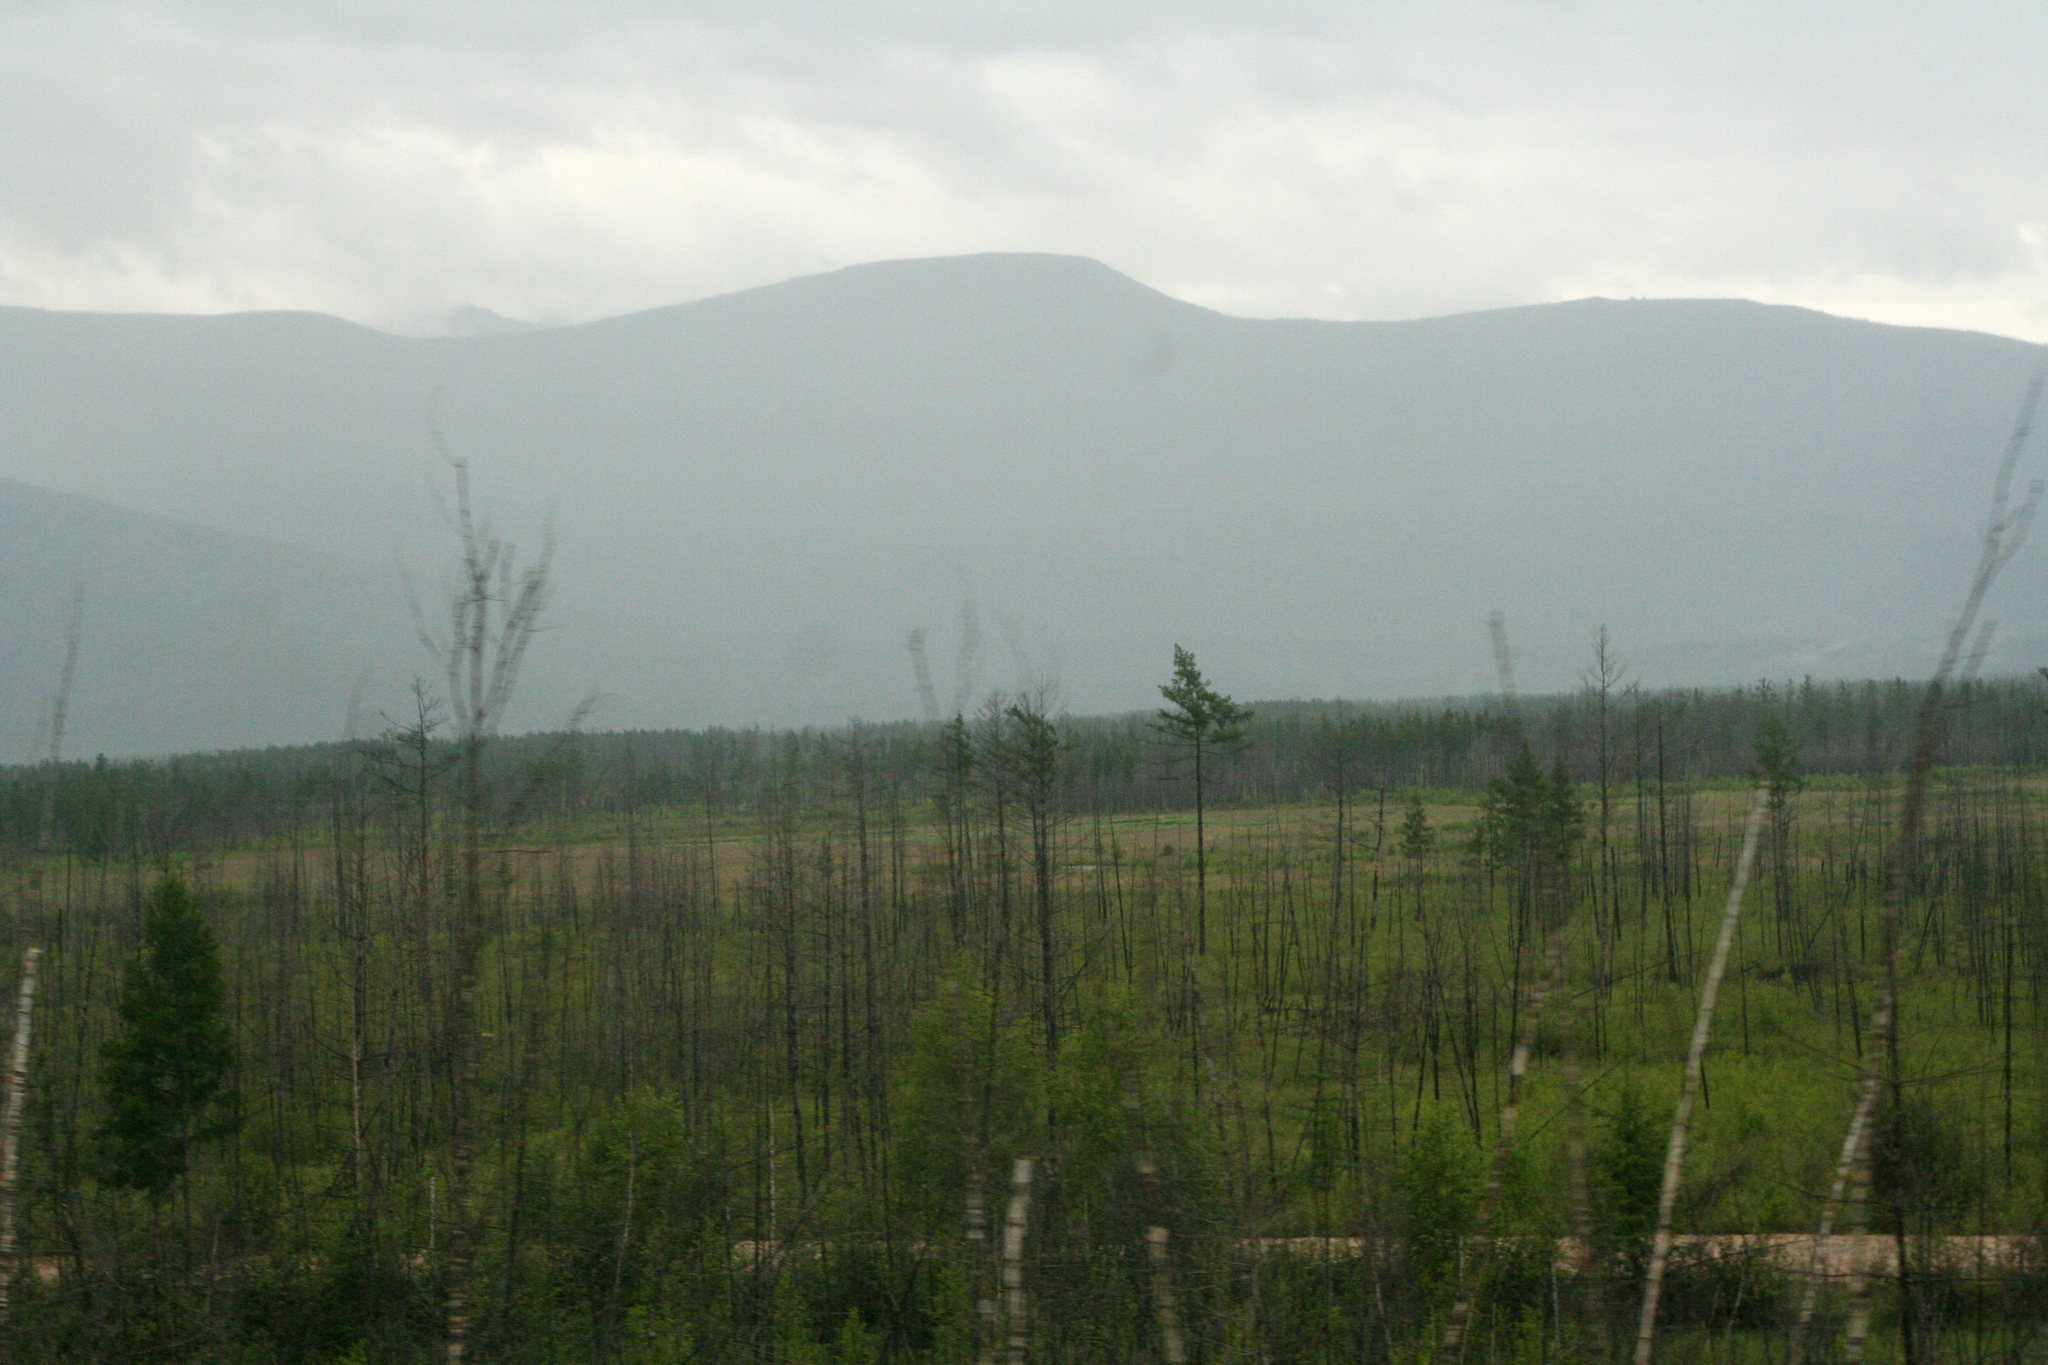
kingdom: Plantae
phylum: Tracheophyta
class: Pinopsida
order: Pinales
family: Pinaceae
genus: Larix
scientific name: Larix gmelinii
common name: Dahurian larch
